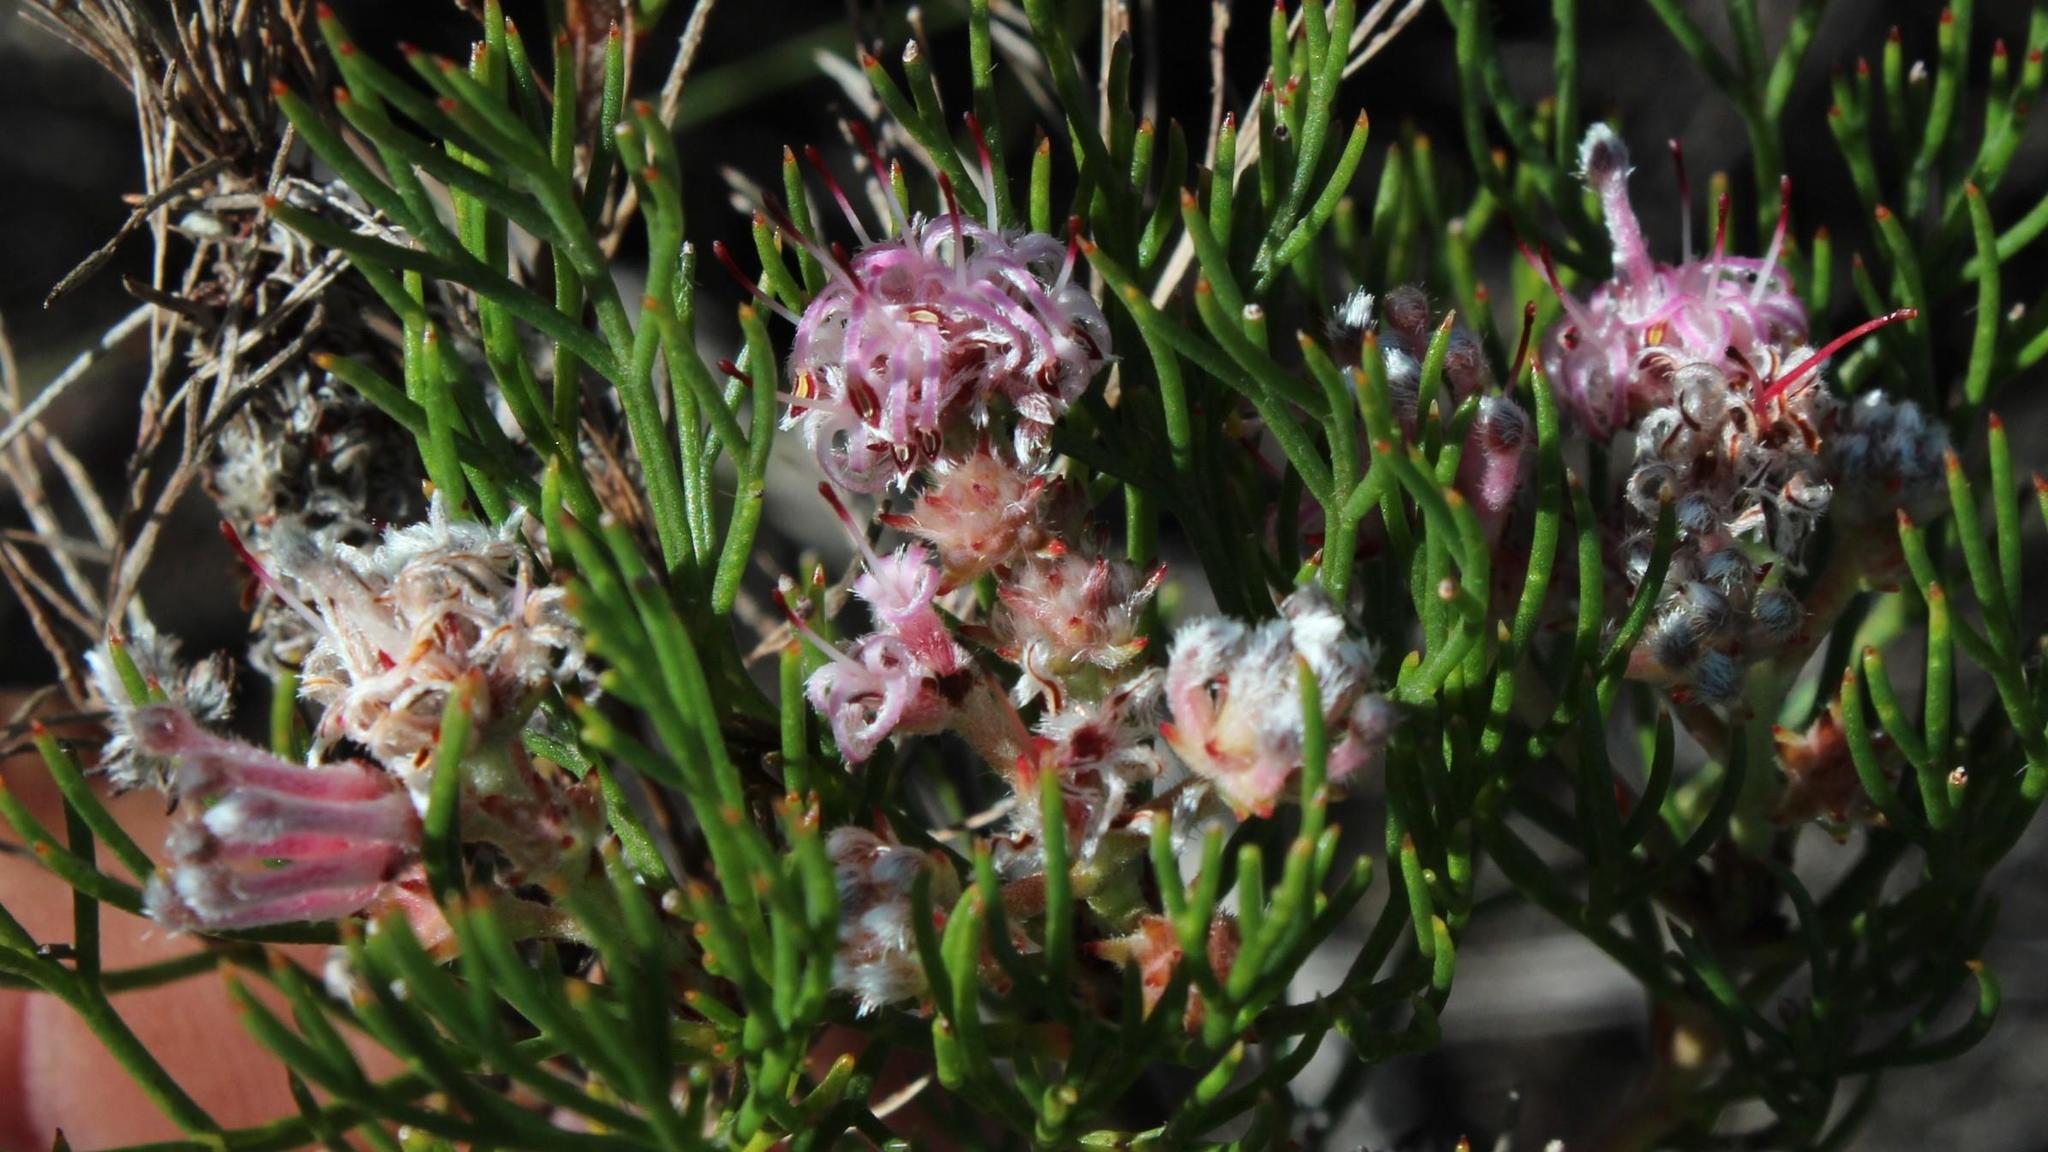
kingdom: Plantae
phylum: Tracheophyta
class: Magnoliopsida
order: Proteales
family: Proteaceae
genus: Serruria
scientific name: Serruria fasciflora
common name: Common pin spiderhead
